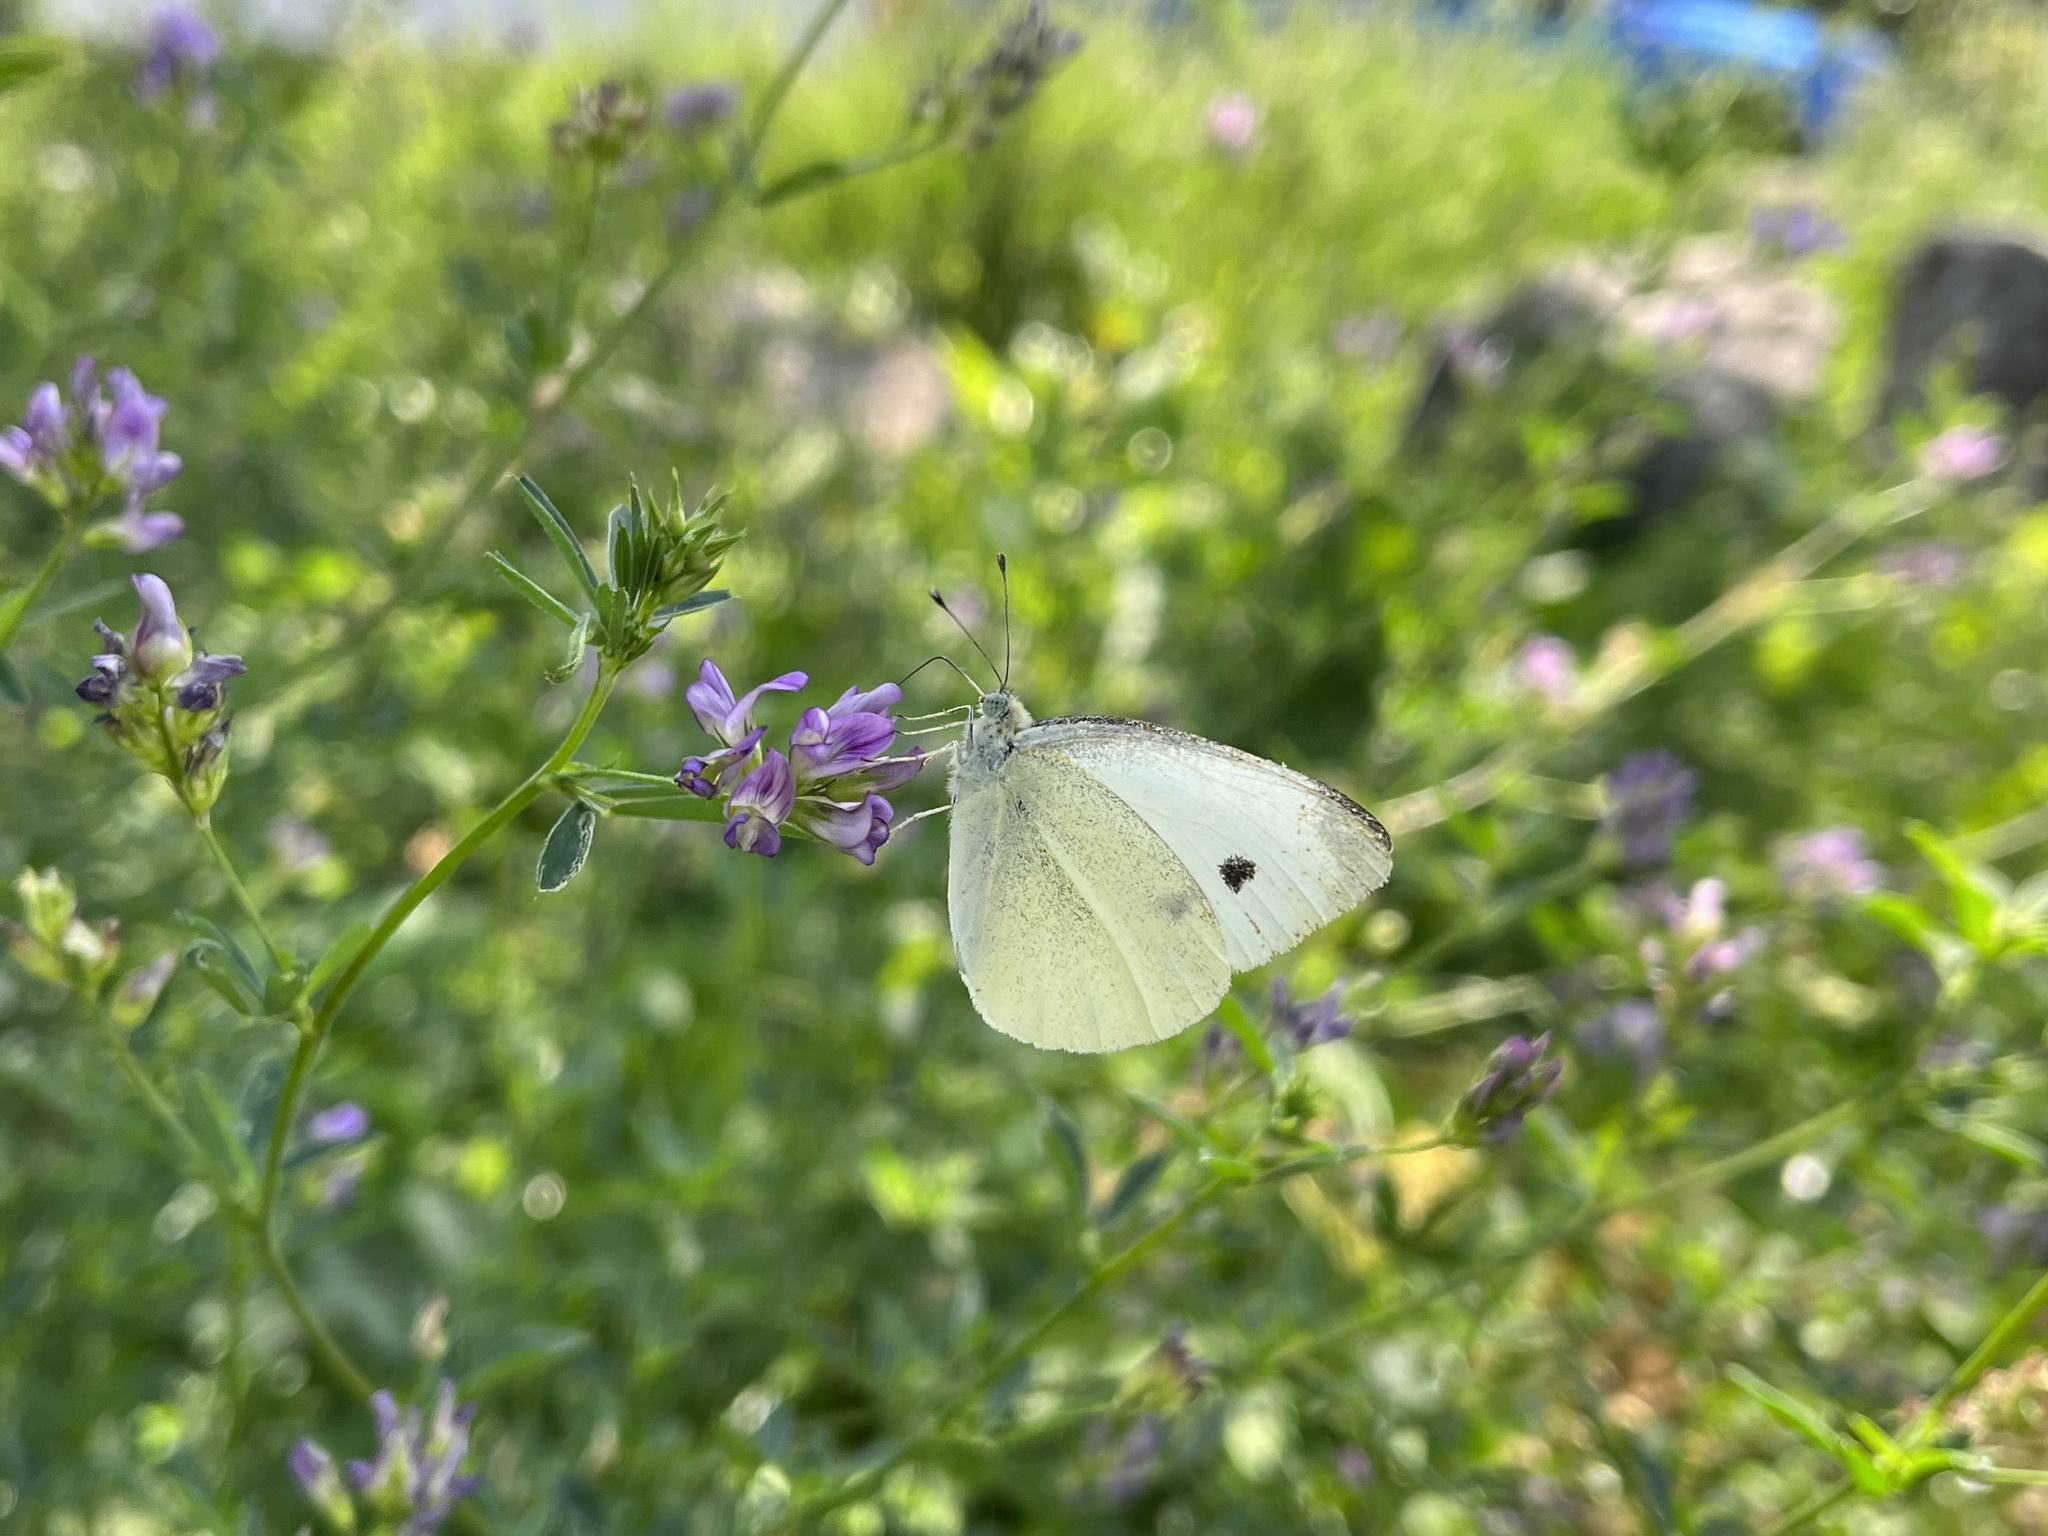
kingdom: Animalia
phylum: Arthropoda
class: Insecta
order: Lepidoptera
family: Pieridae
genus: Pieris
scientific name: Pieris rapae
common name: Small white
